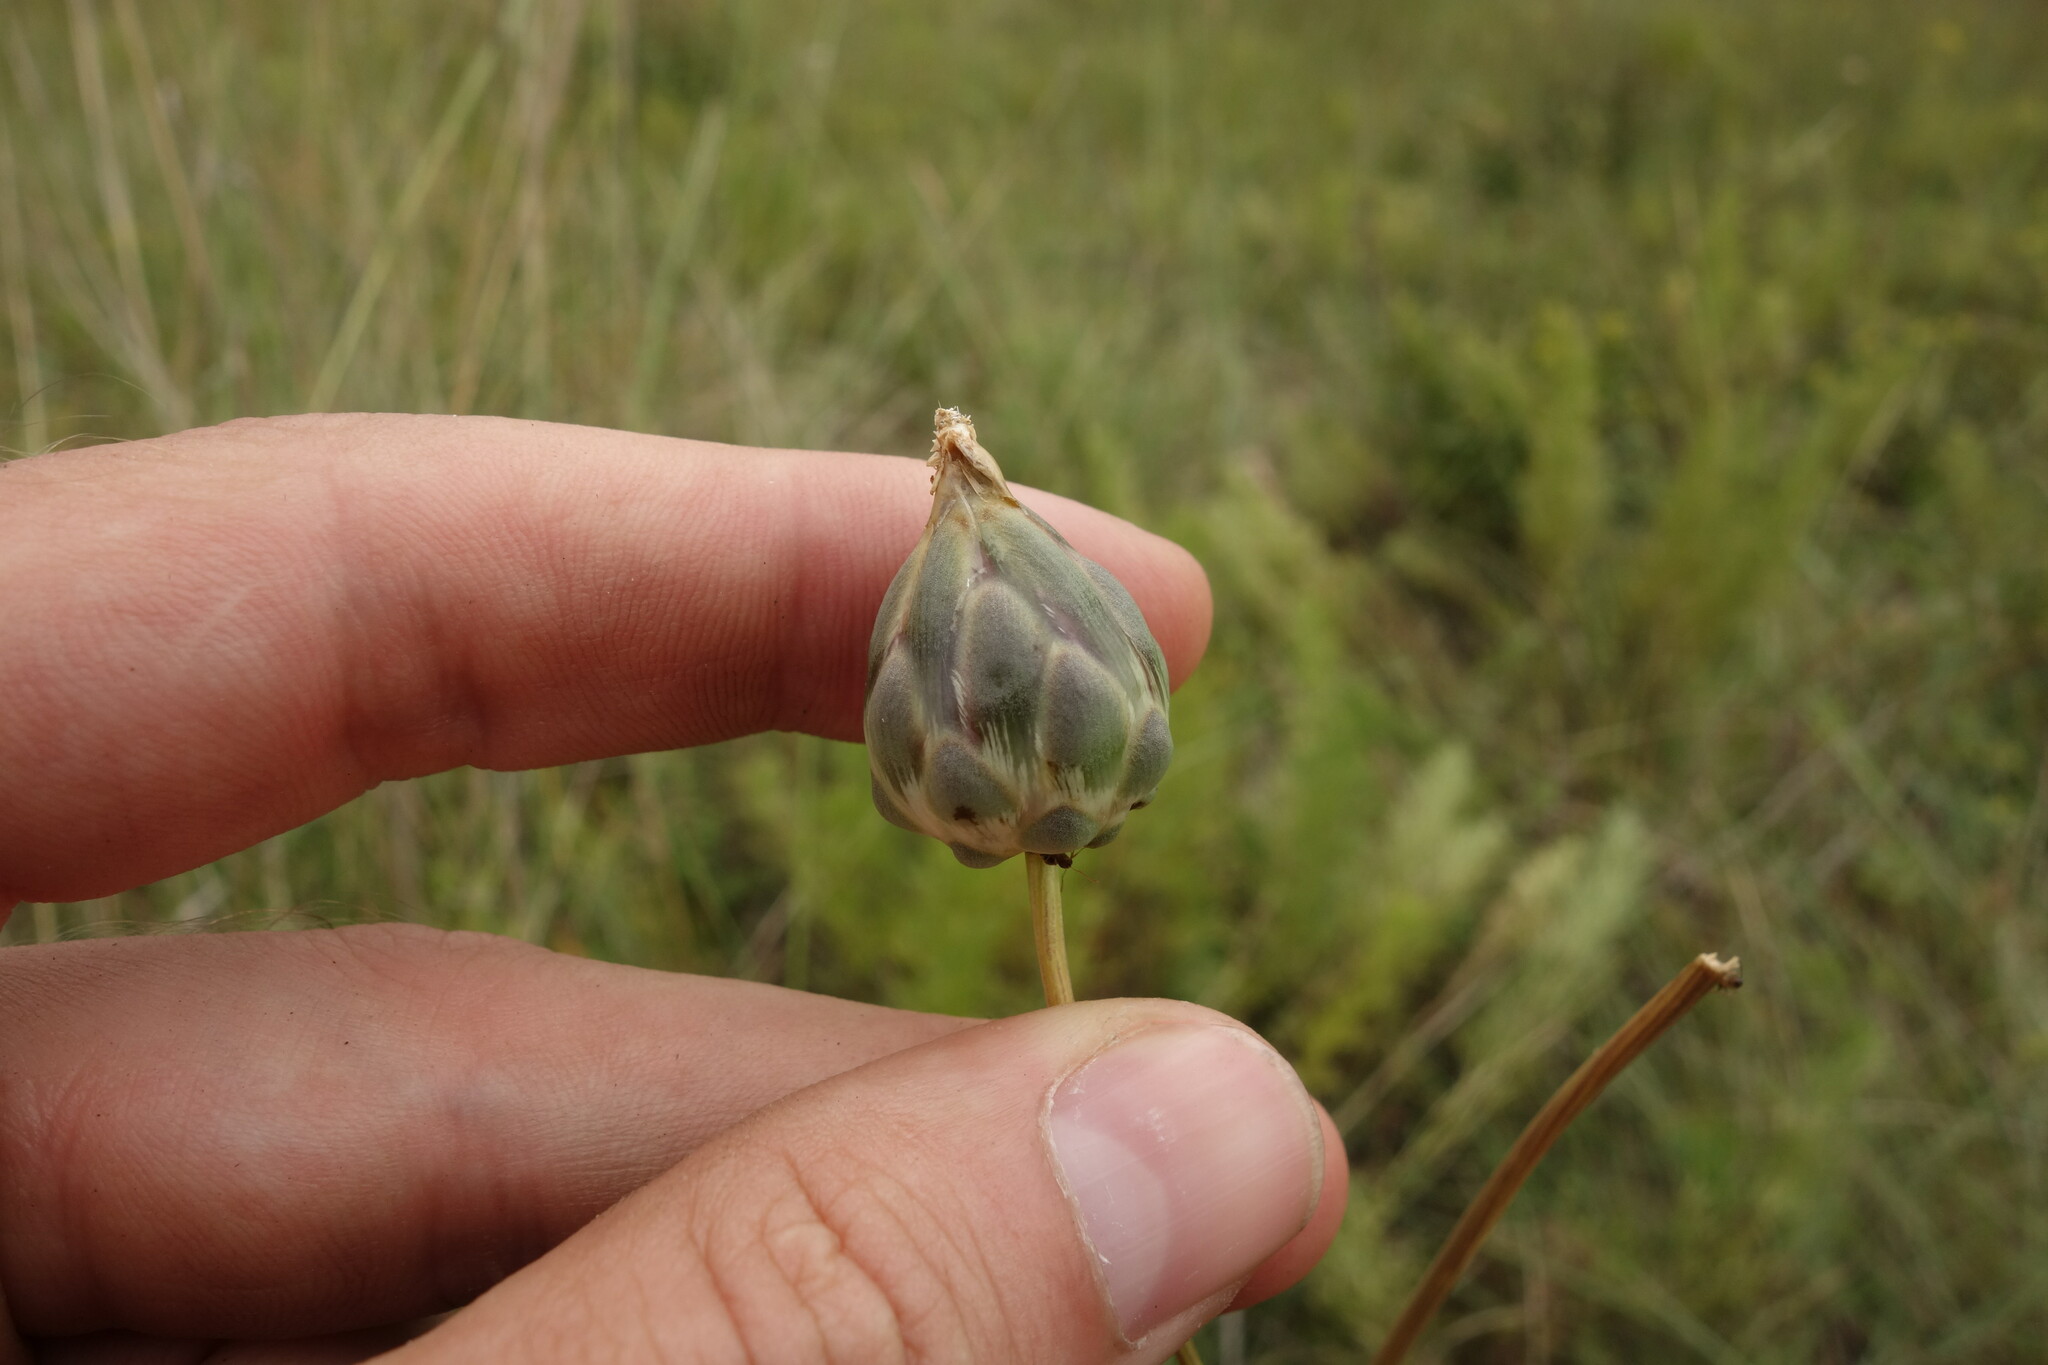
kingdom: Plantae
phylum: Tracheophyta
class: Magnoliopsida
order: Asterales
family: Asteraceae
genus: Rhaponticoides
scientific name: Rhaponticoides ruthenica
